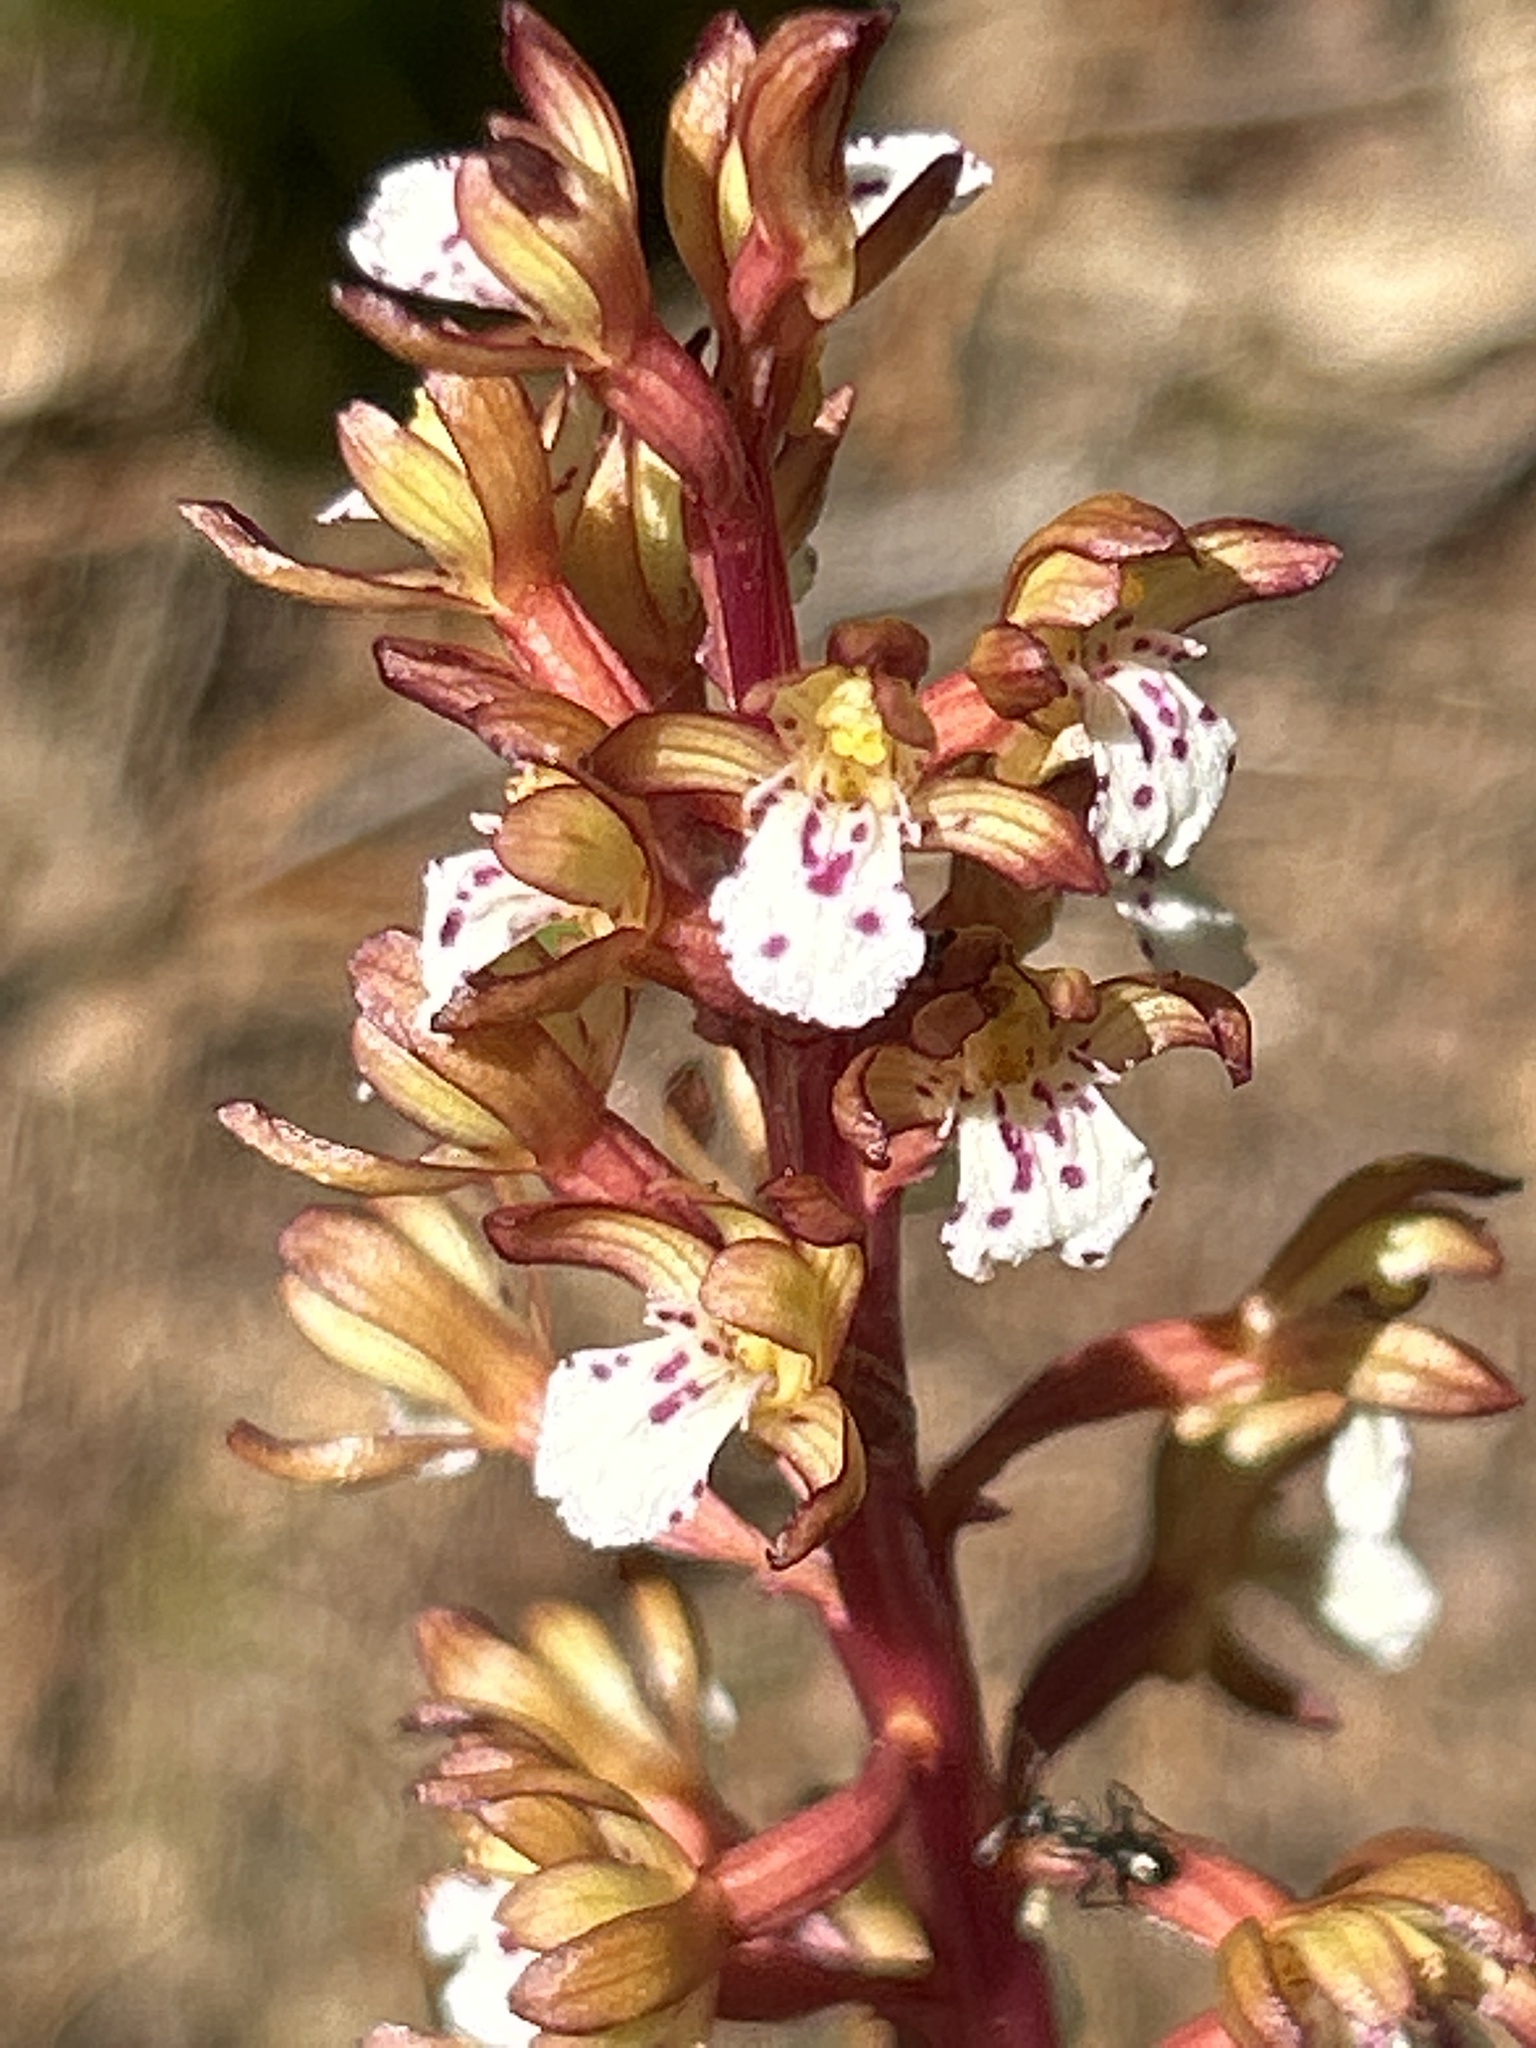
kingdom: Plantae
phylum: Tracheophyta
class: Liliopsida
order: Asparagales
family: Orchidaceae
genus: Corallorhiza
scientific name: Corallorhiza maculata
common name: Spotted coralroot
